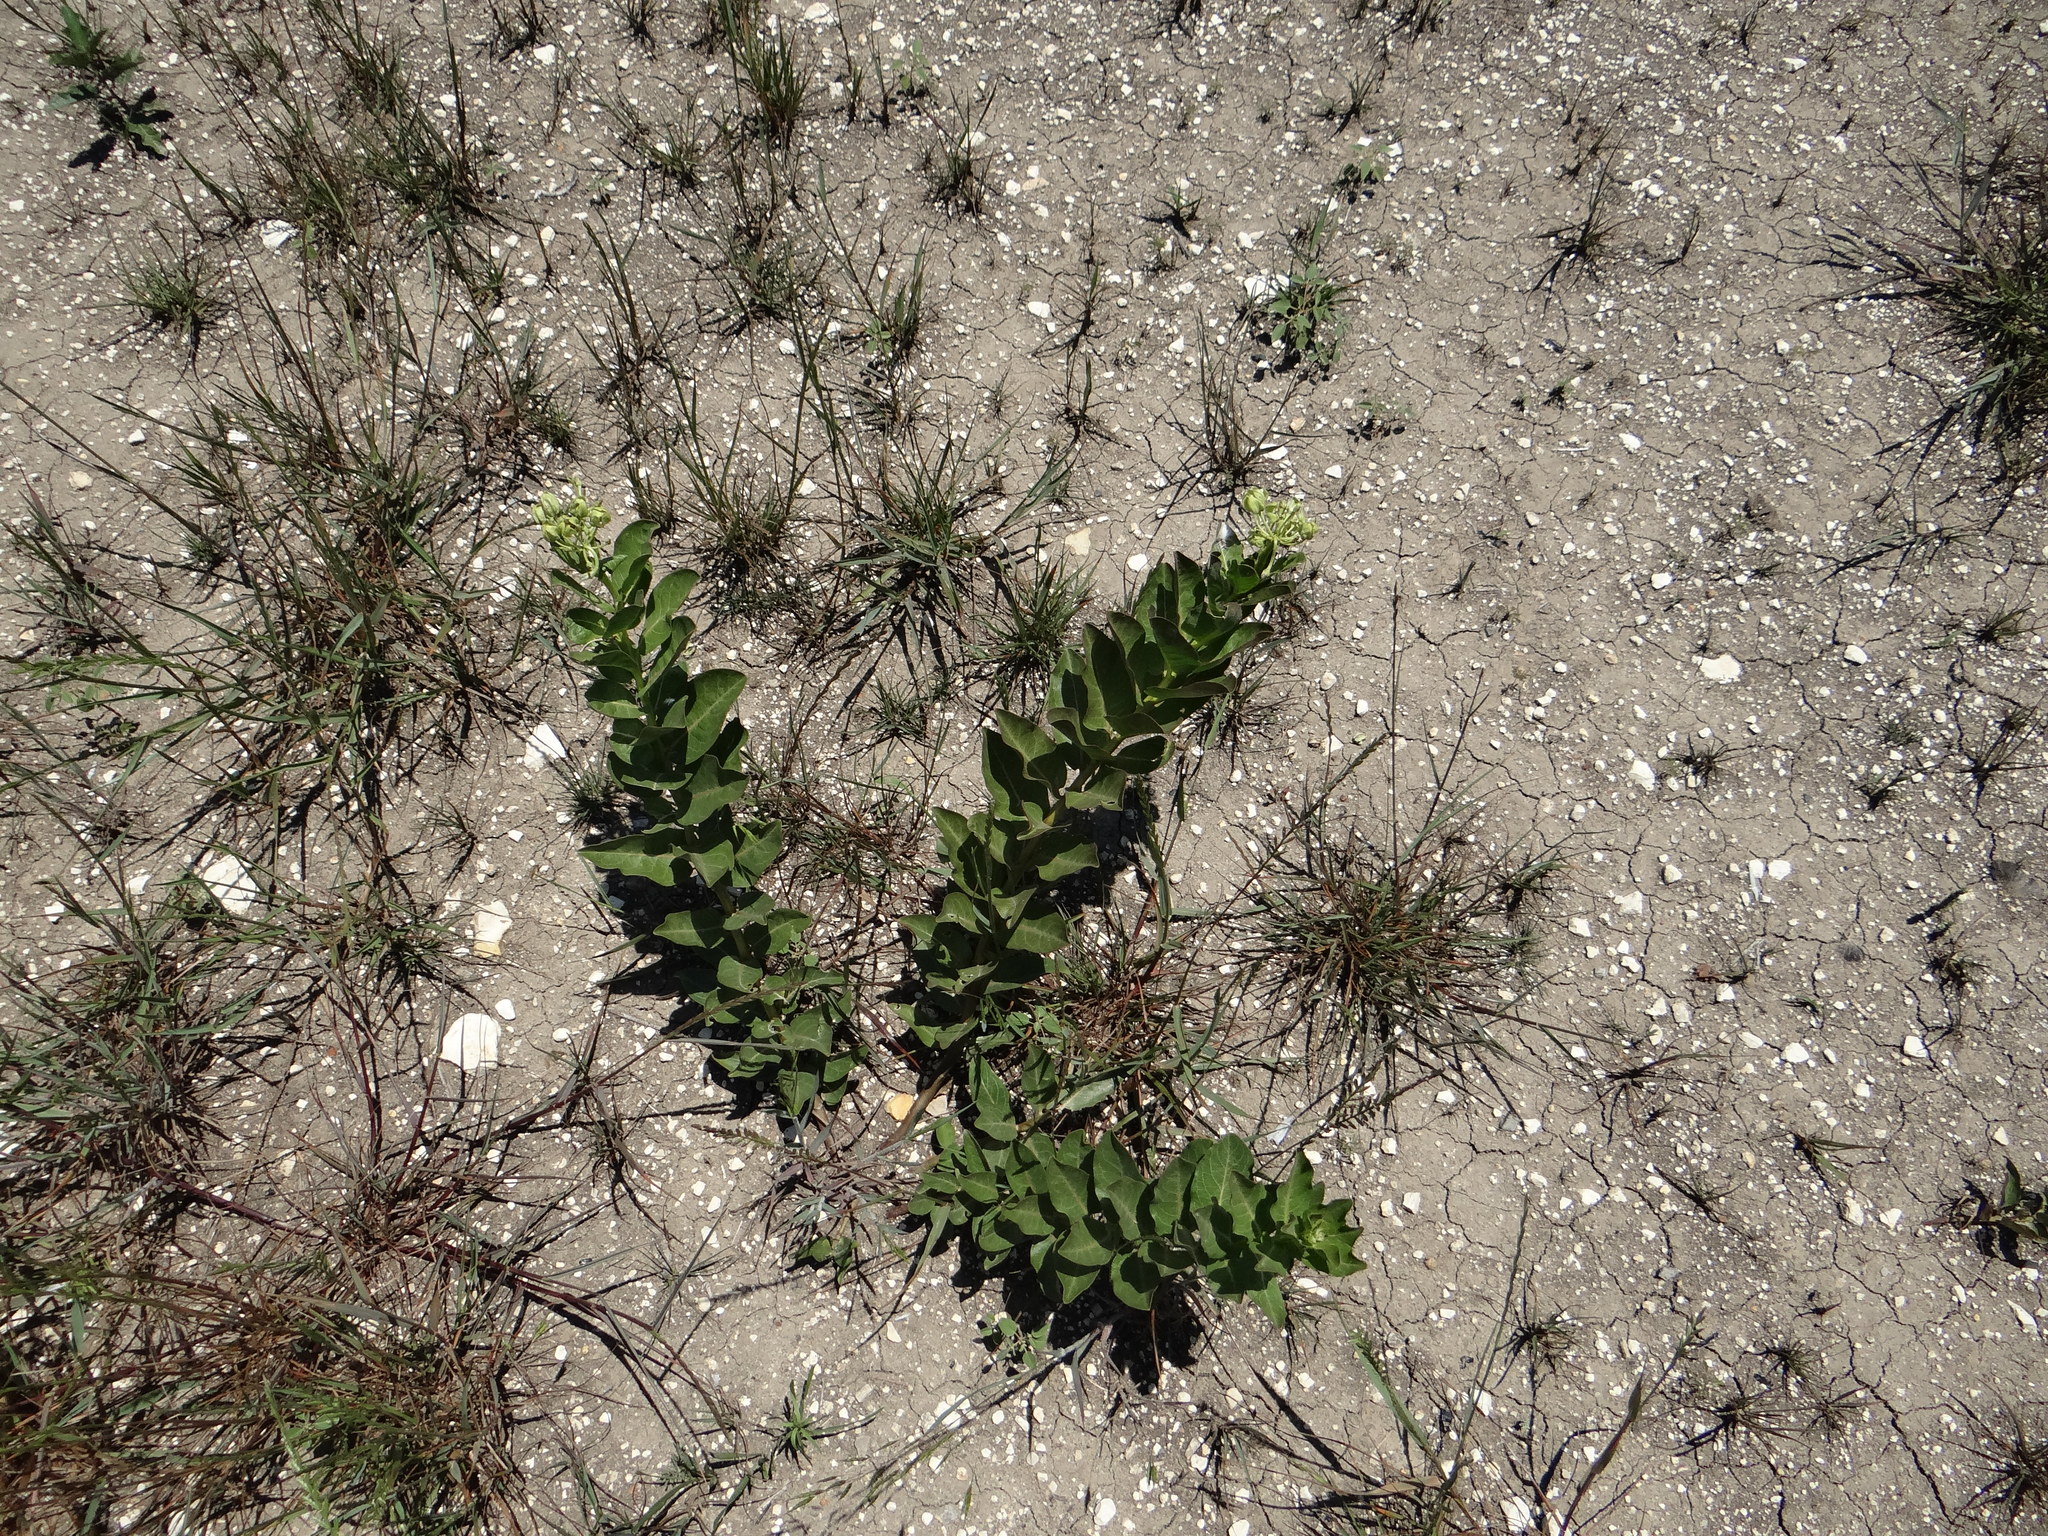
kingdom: Plantae
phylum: Tracheophyta
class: Magnoliopsida
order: Gentianales
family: Apocynaceae
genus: Asclepias
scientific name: Asclepias viridis
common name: Antelope-horns
